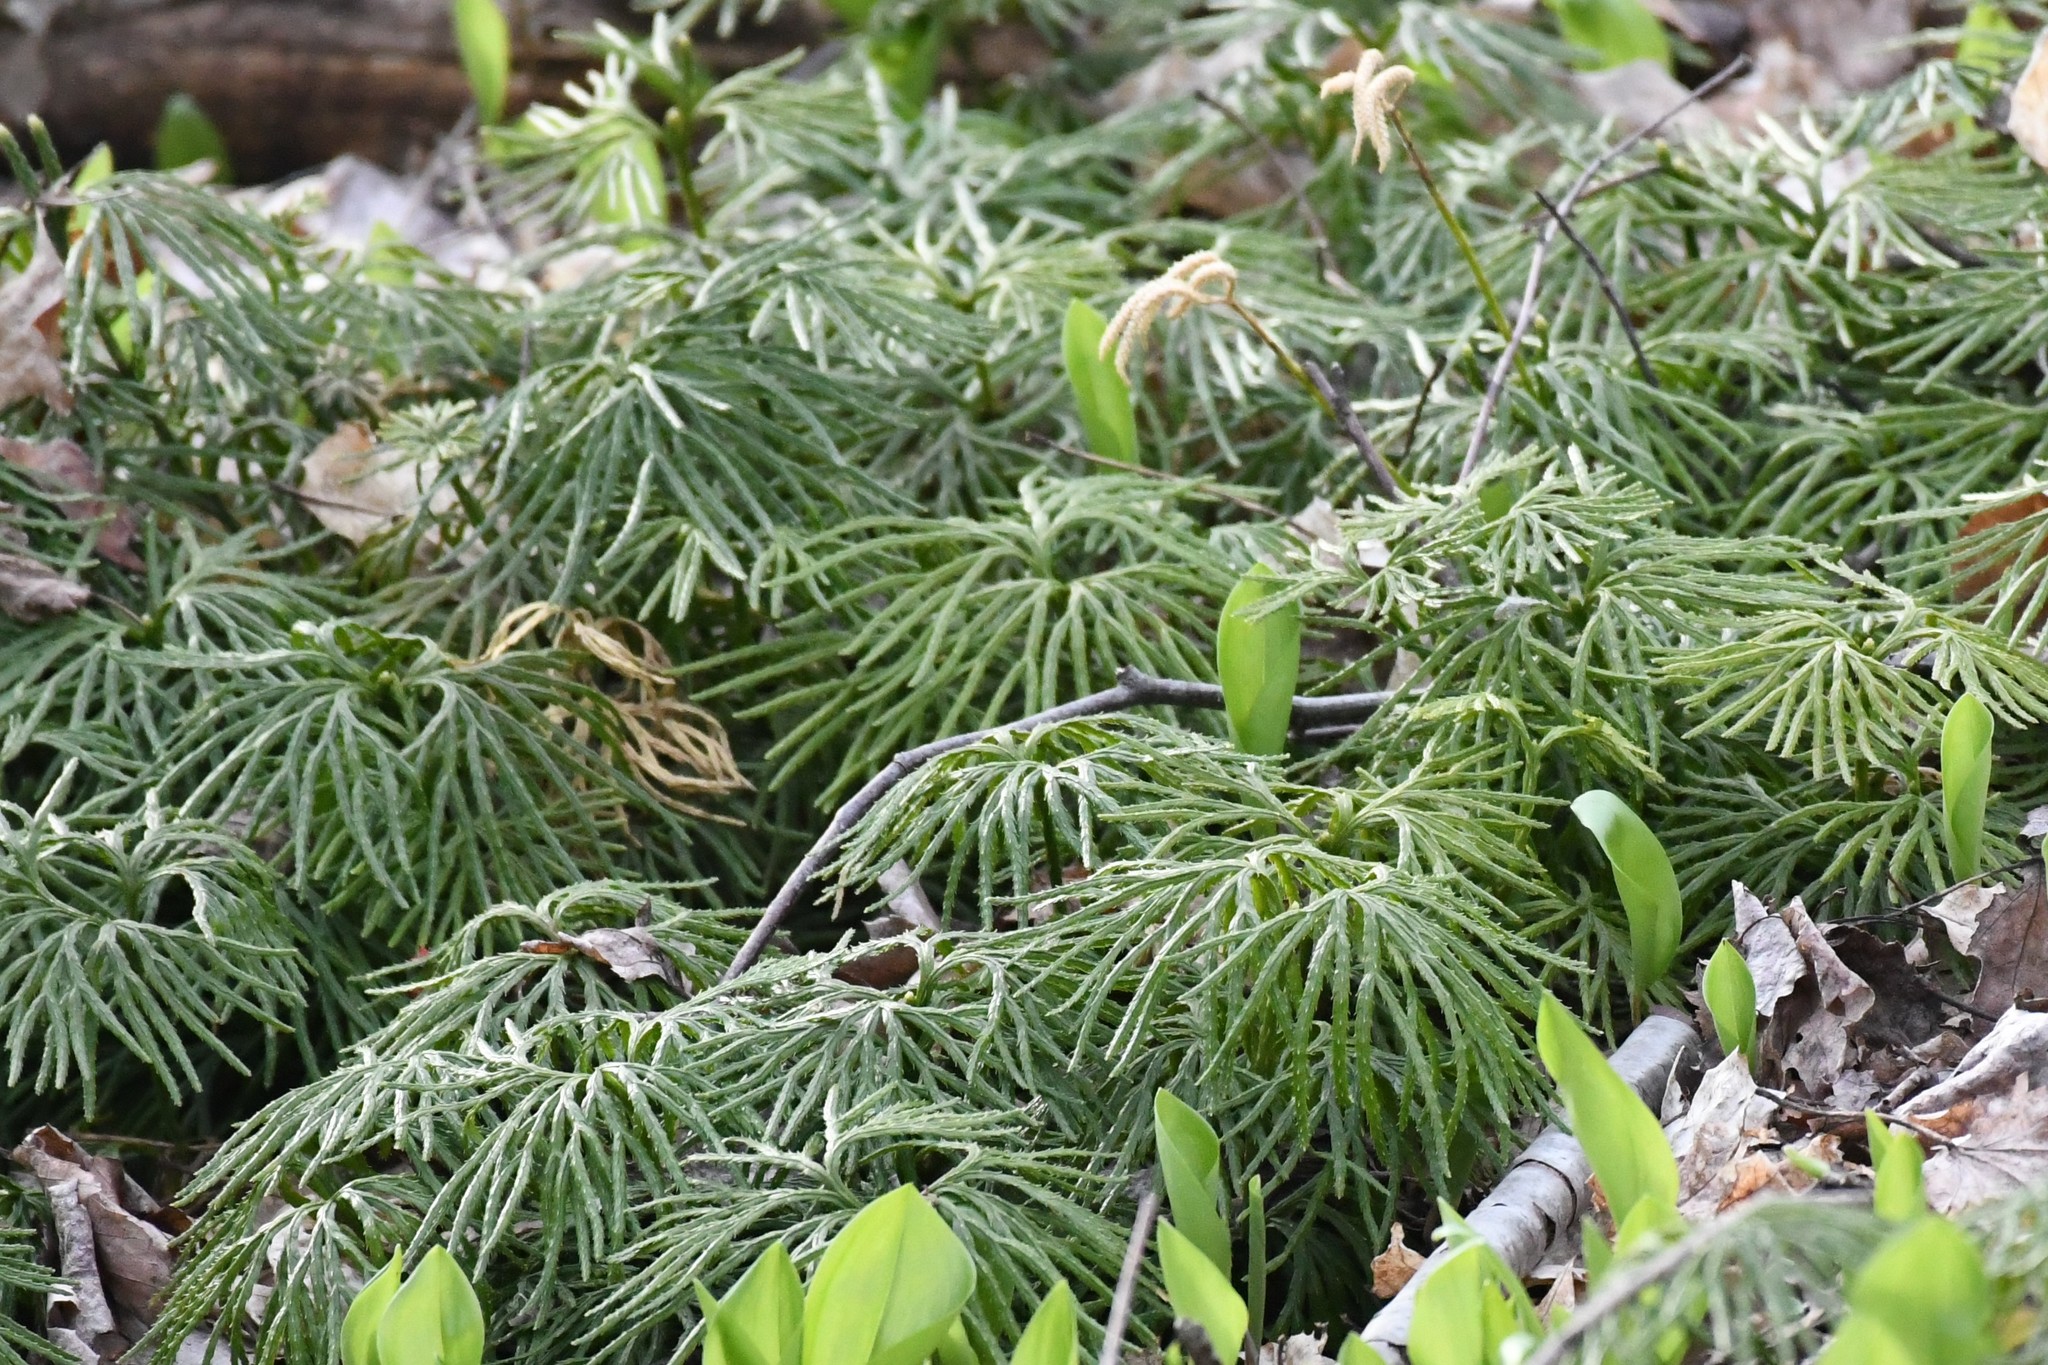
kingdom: Plantae
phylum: Tracheophyta
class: Lycopodiopsida
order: Lycopodiales
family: Lycopodiaceae
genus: Diphasiastrum
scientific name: Diphasiastrum digitatum
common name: Southern running-pine
